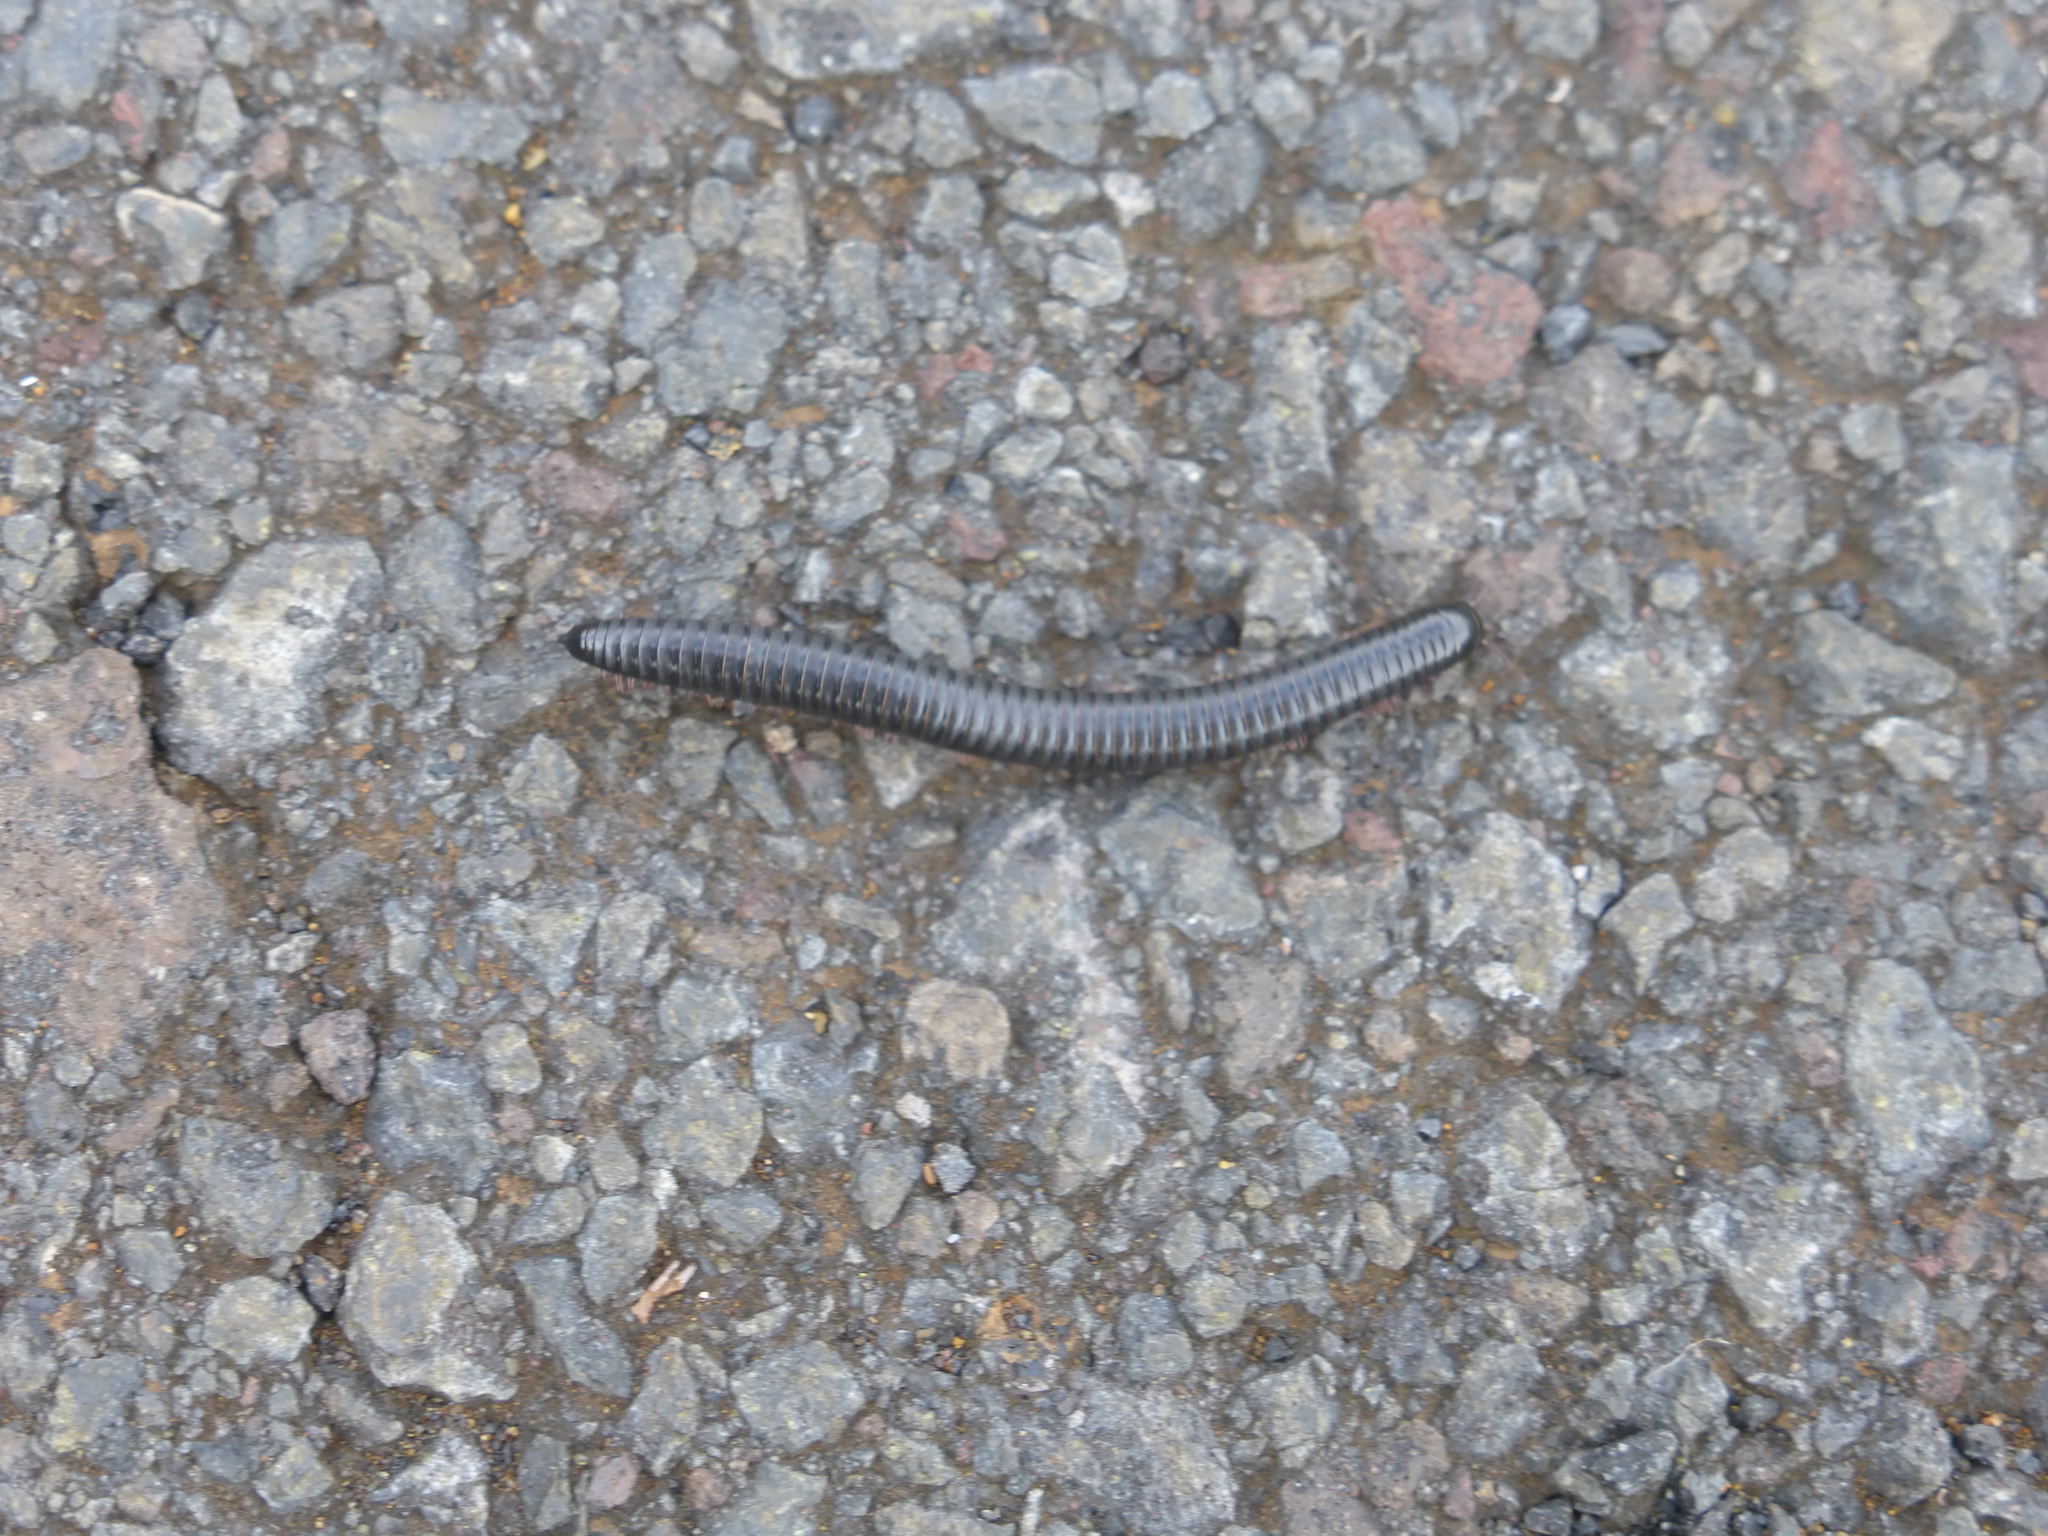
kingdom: Animalia
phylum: Arthropoda
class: Diplopoda
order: Julida
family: Julidae
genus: Ommatoiulus
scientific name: Ommatoiulus moreleti
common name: Portuguese millipede
